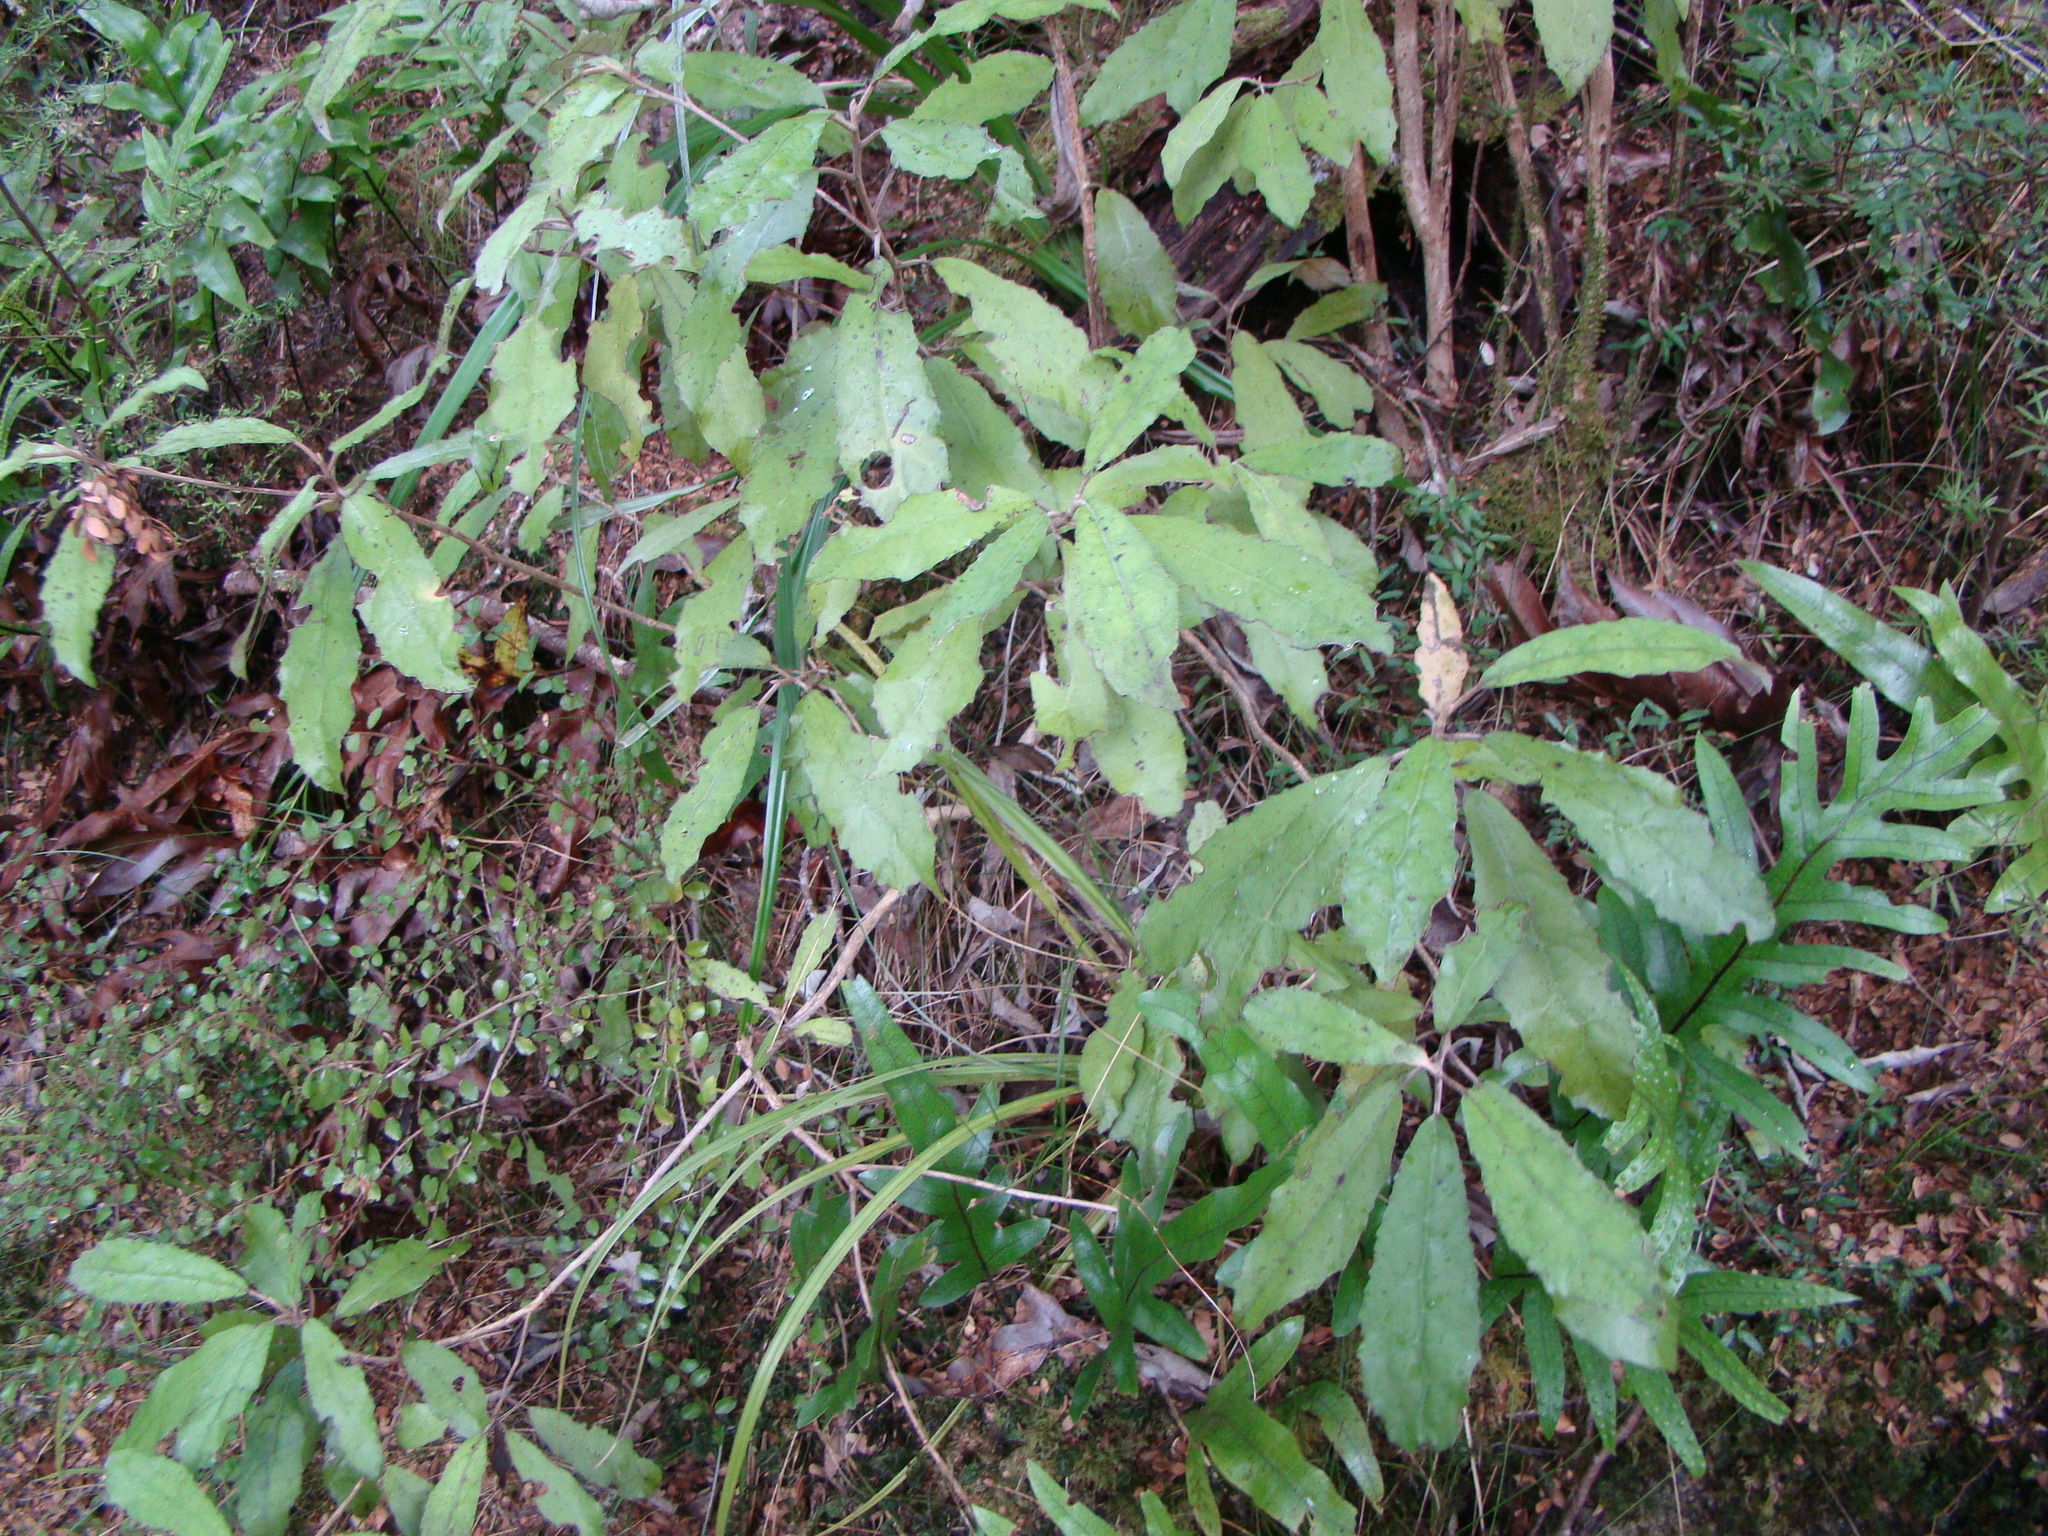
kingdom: Plantae
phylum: Tracheophyta
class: Magnoliopsida
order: Asterales
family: Asteraceae
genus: Olearia
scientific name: Olearia rani
